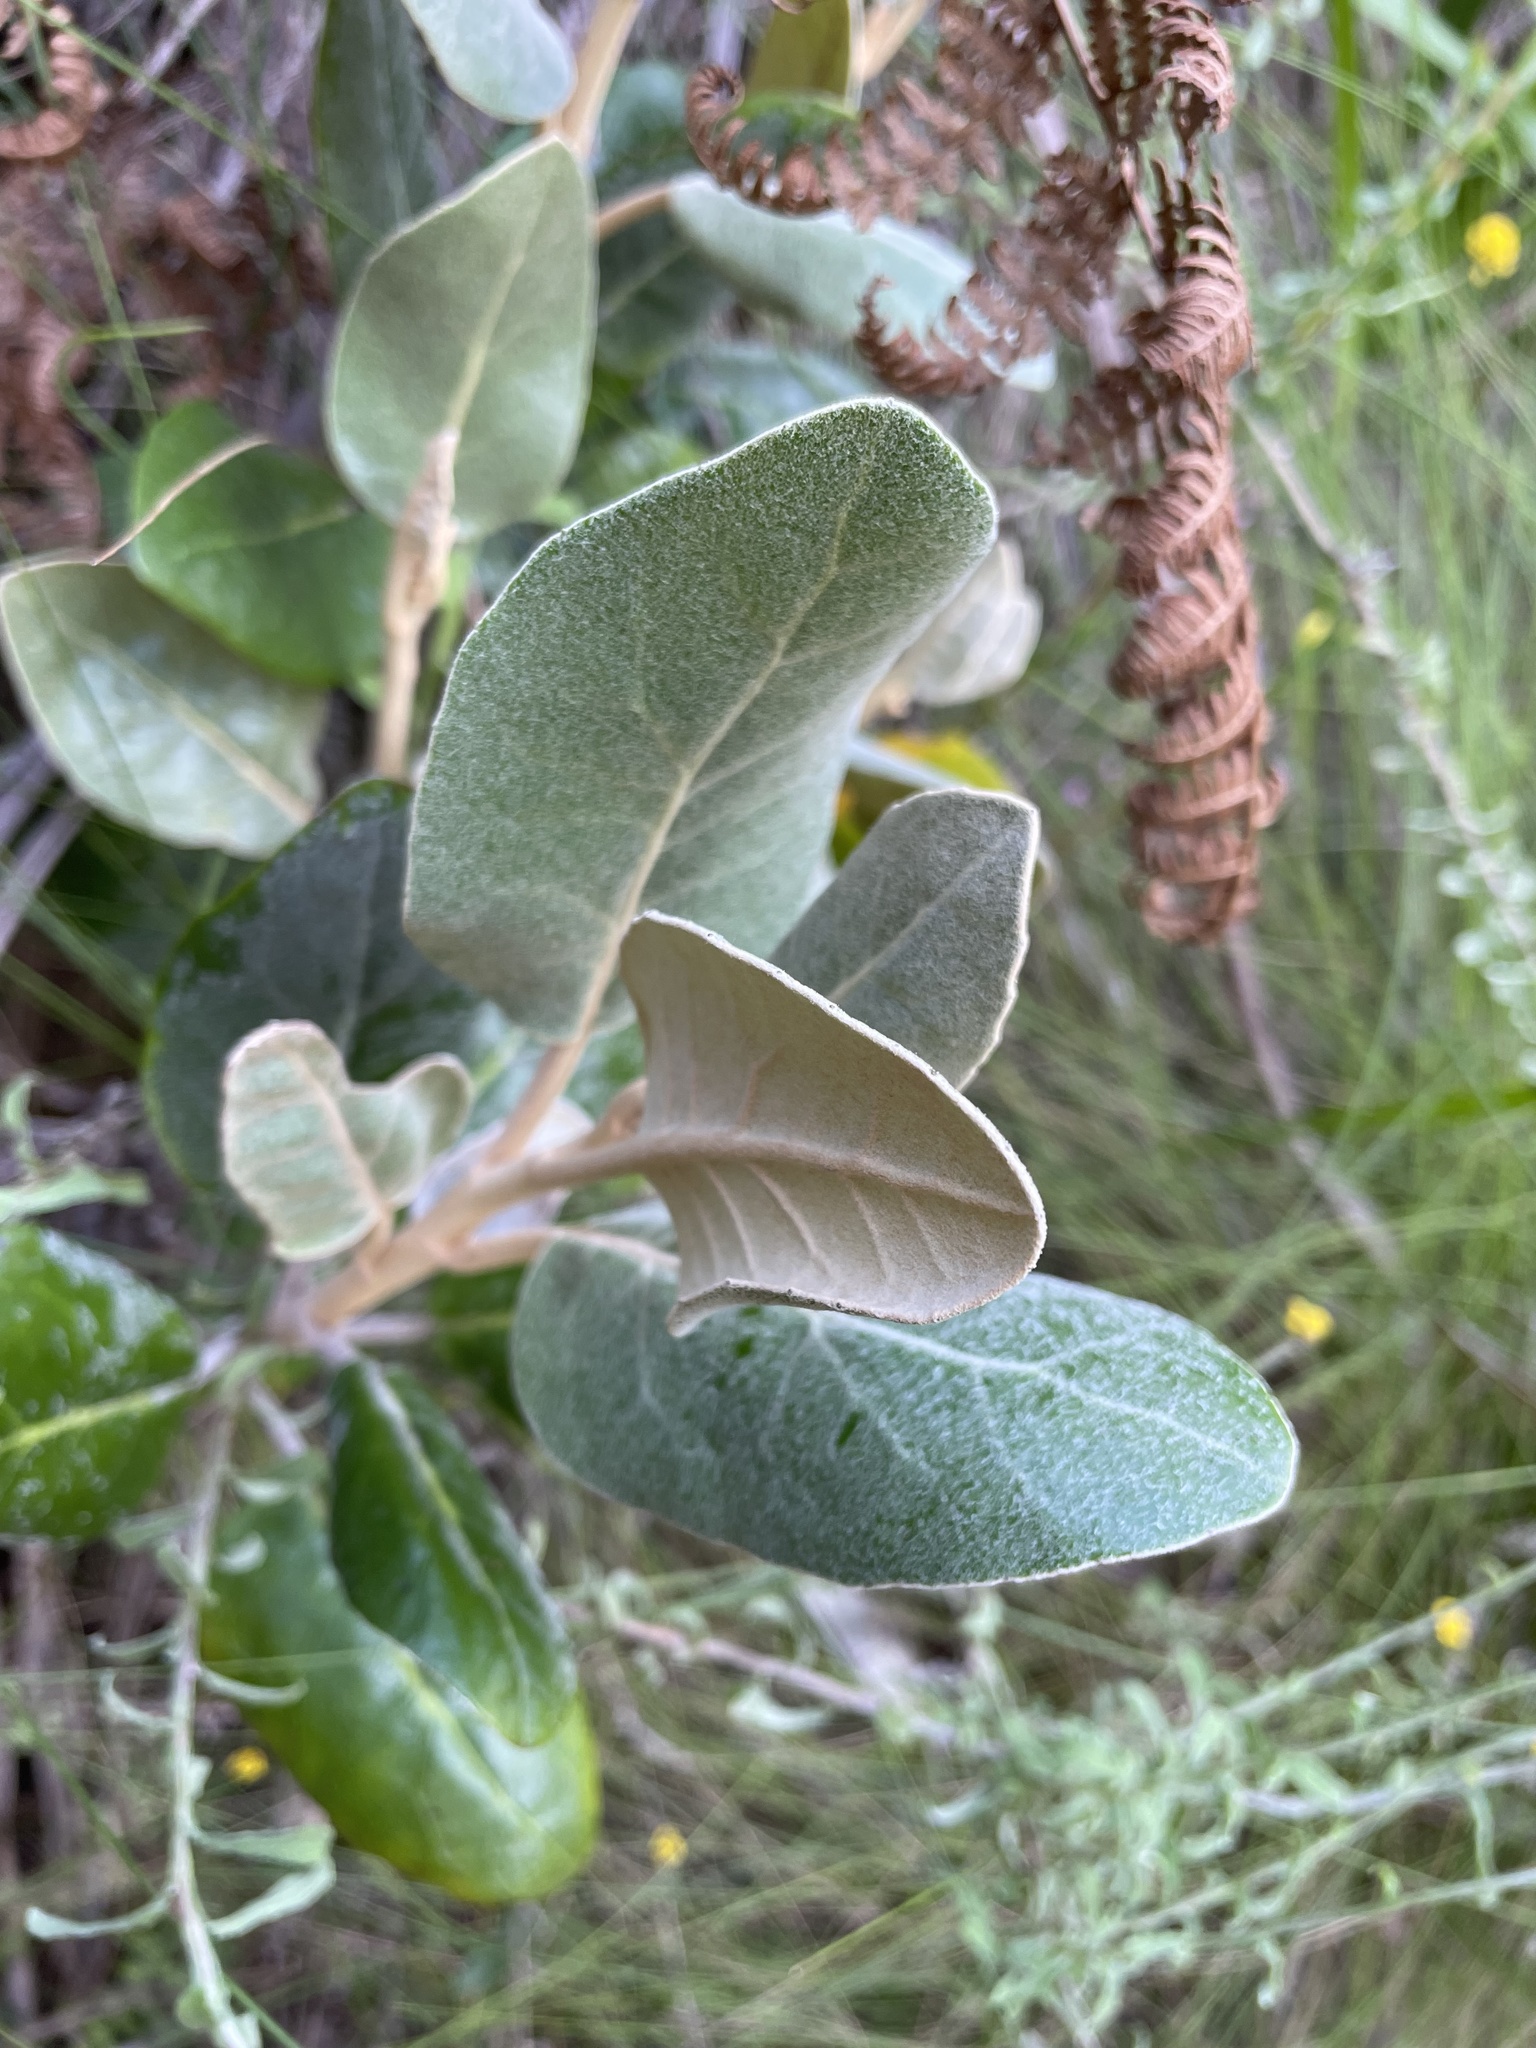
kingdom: Plantae
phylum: Tracheophyta
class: Magnoliopsida
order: Asterales
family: Asteraceae
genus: Capelio
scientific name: Capelio tabularis
